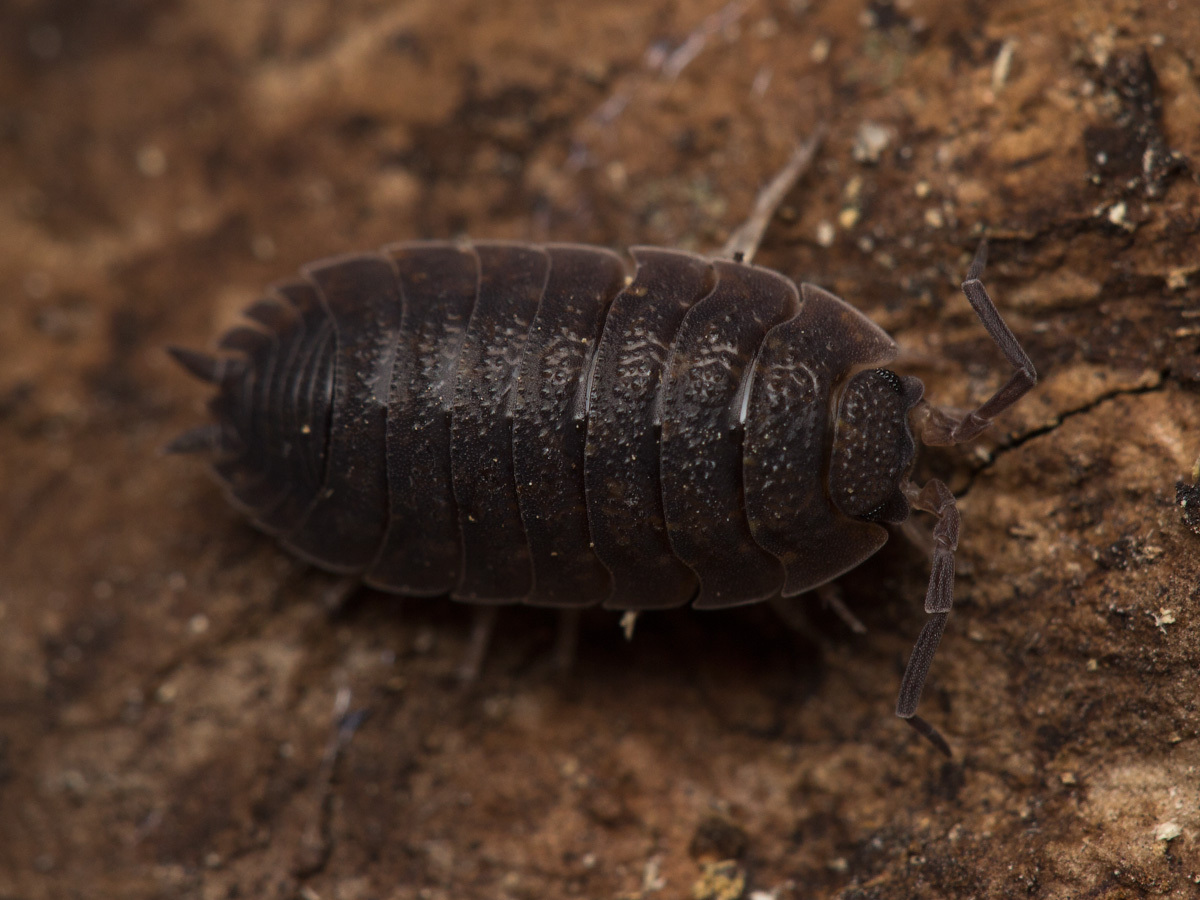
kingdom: Animalia
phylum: Arthropoda
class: Malacostraca
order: Isopoda
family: Porcellionidae
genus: Porcellio
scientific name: Porcellio scaber
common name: Common rough woodlouse
